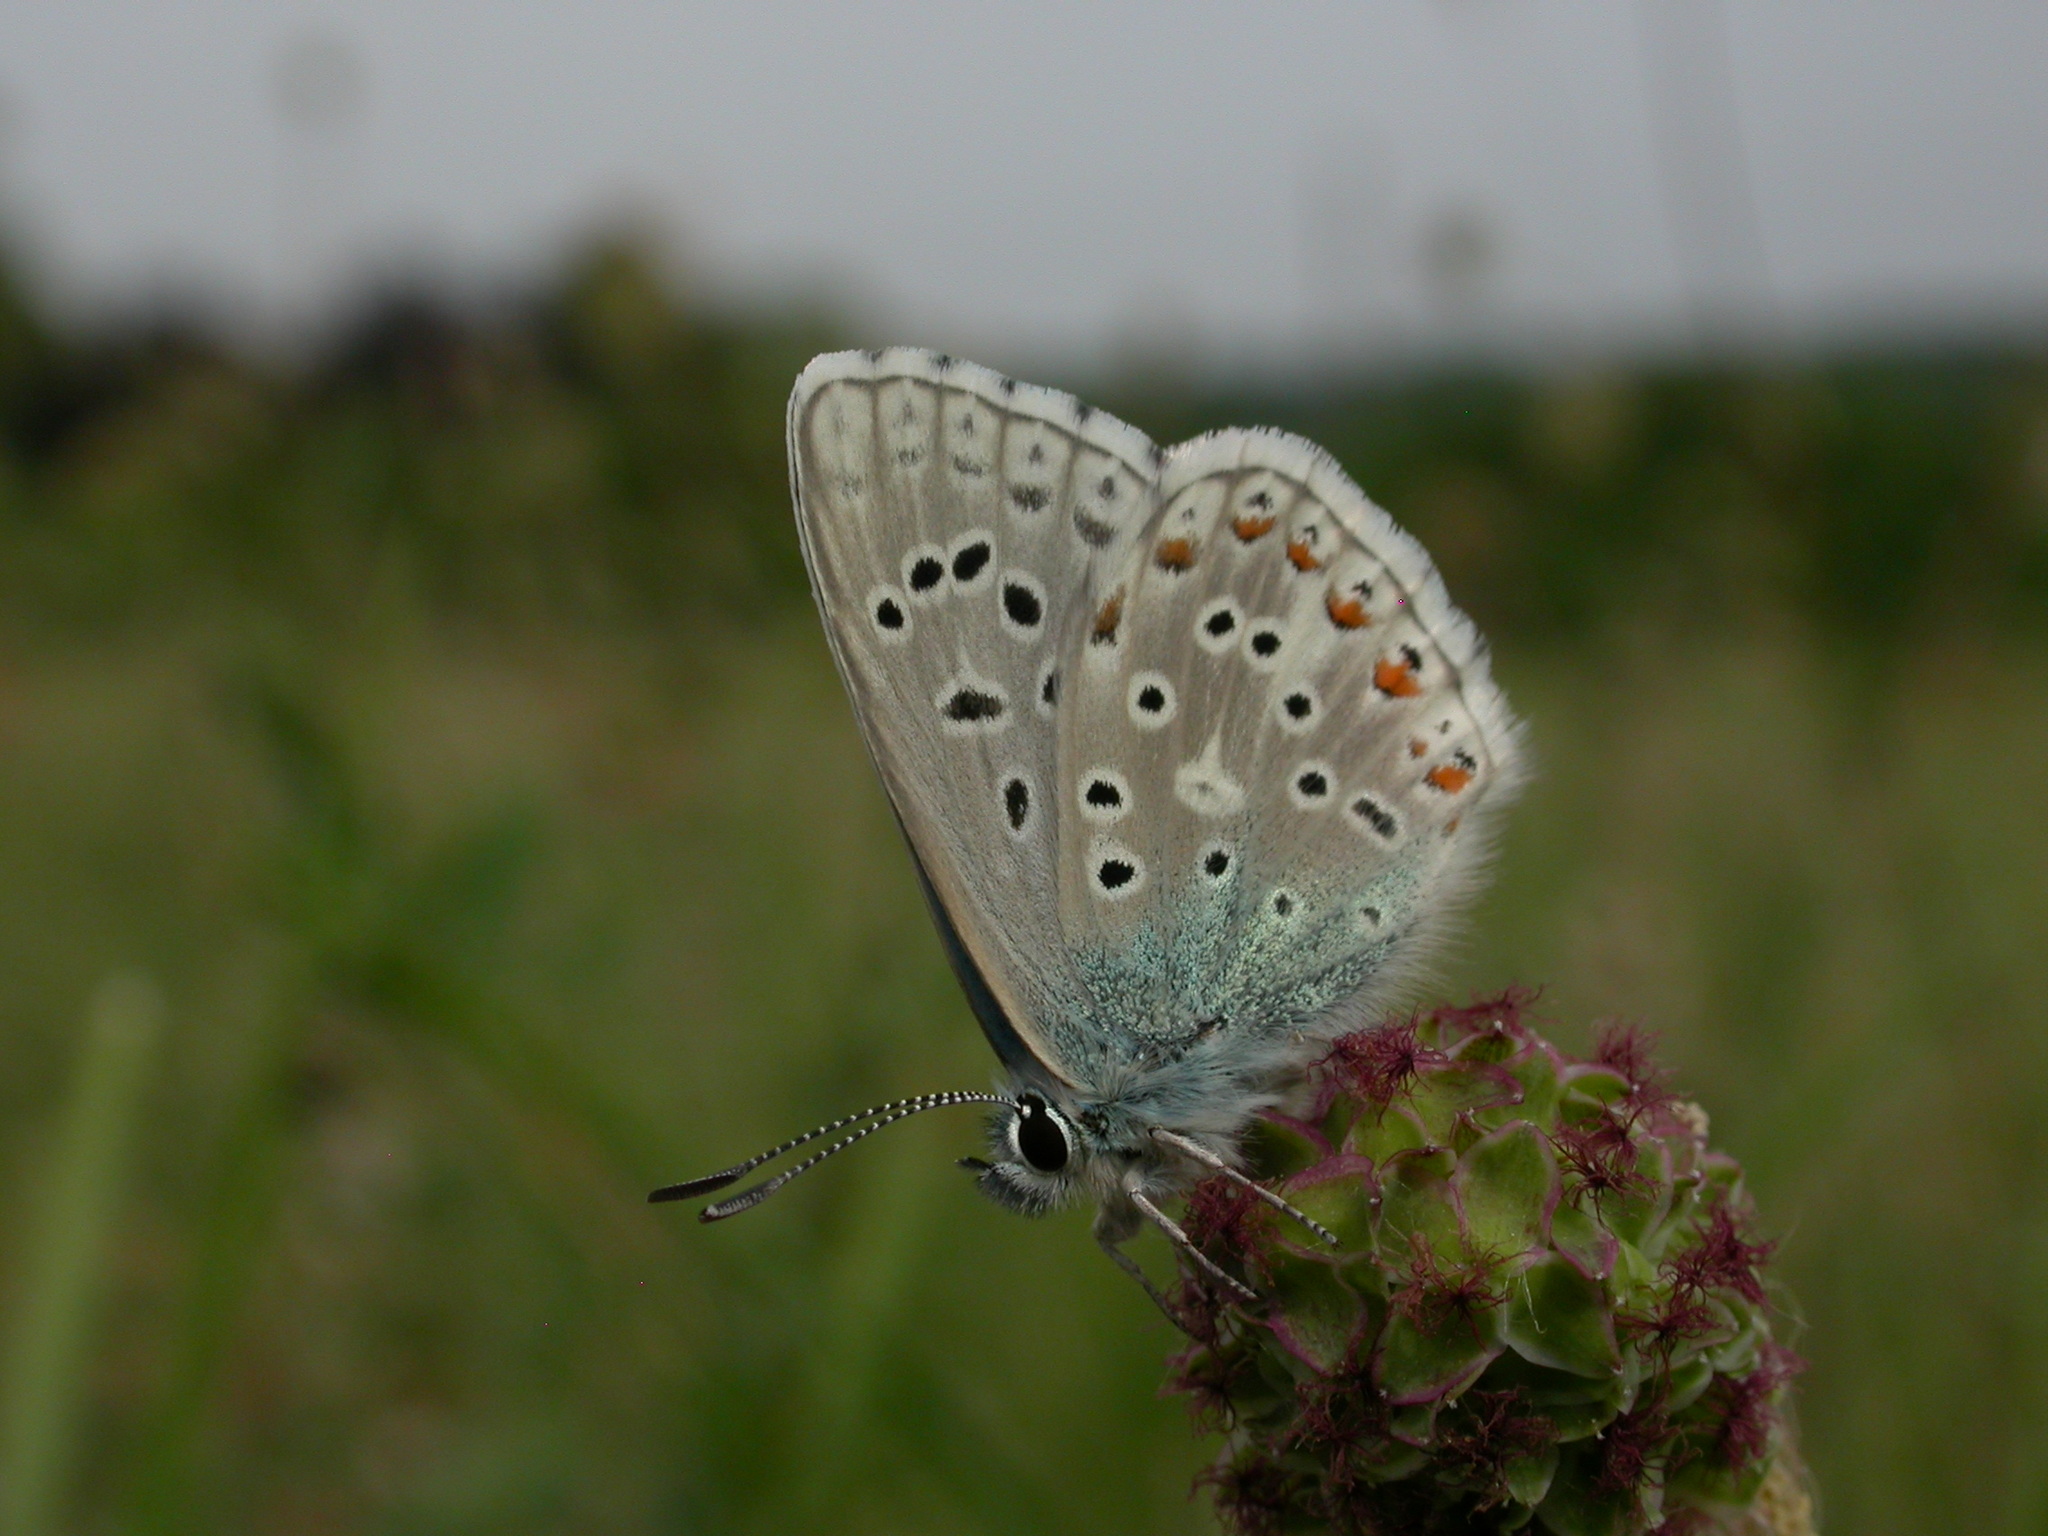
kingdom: Animalia
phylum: Arthropoda
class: Insecta
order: Lepidoptera
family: Lycaenidae
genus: Lysandra
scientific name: Lysandra bellargus
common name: Adonis blue
